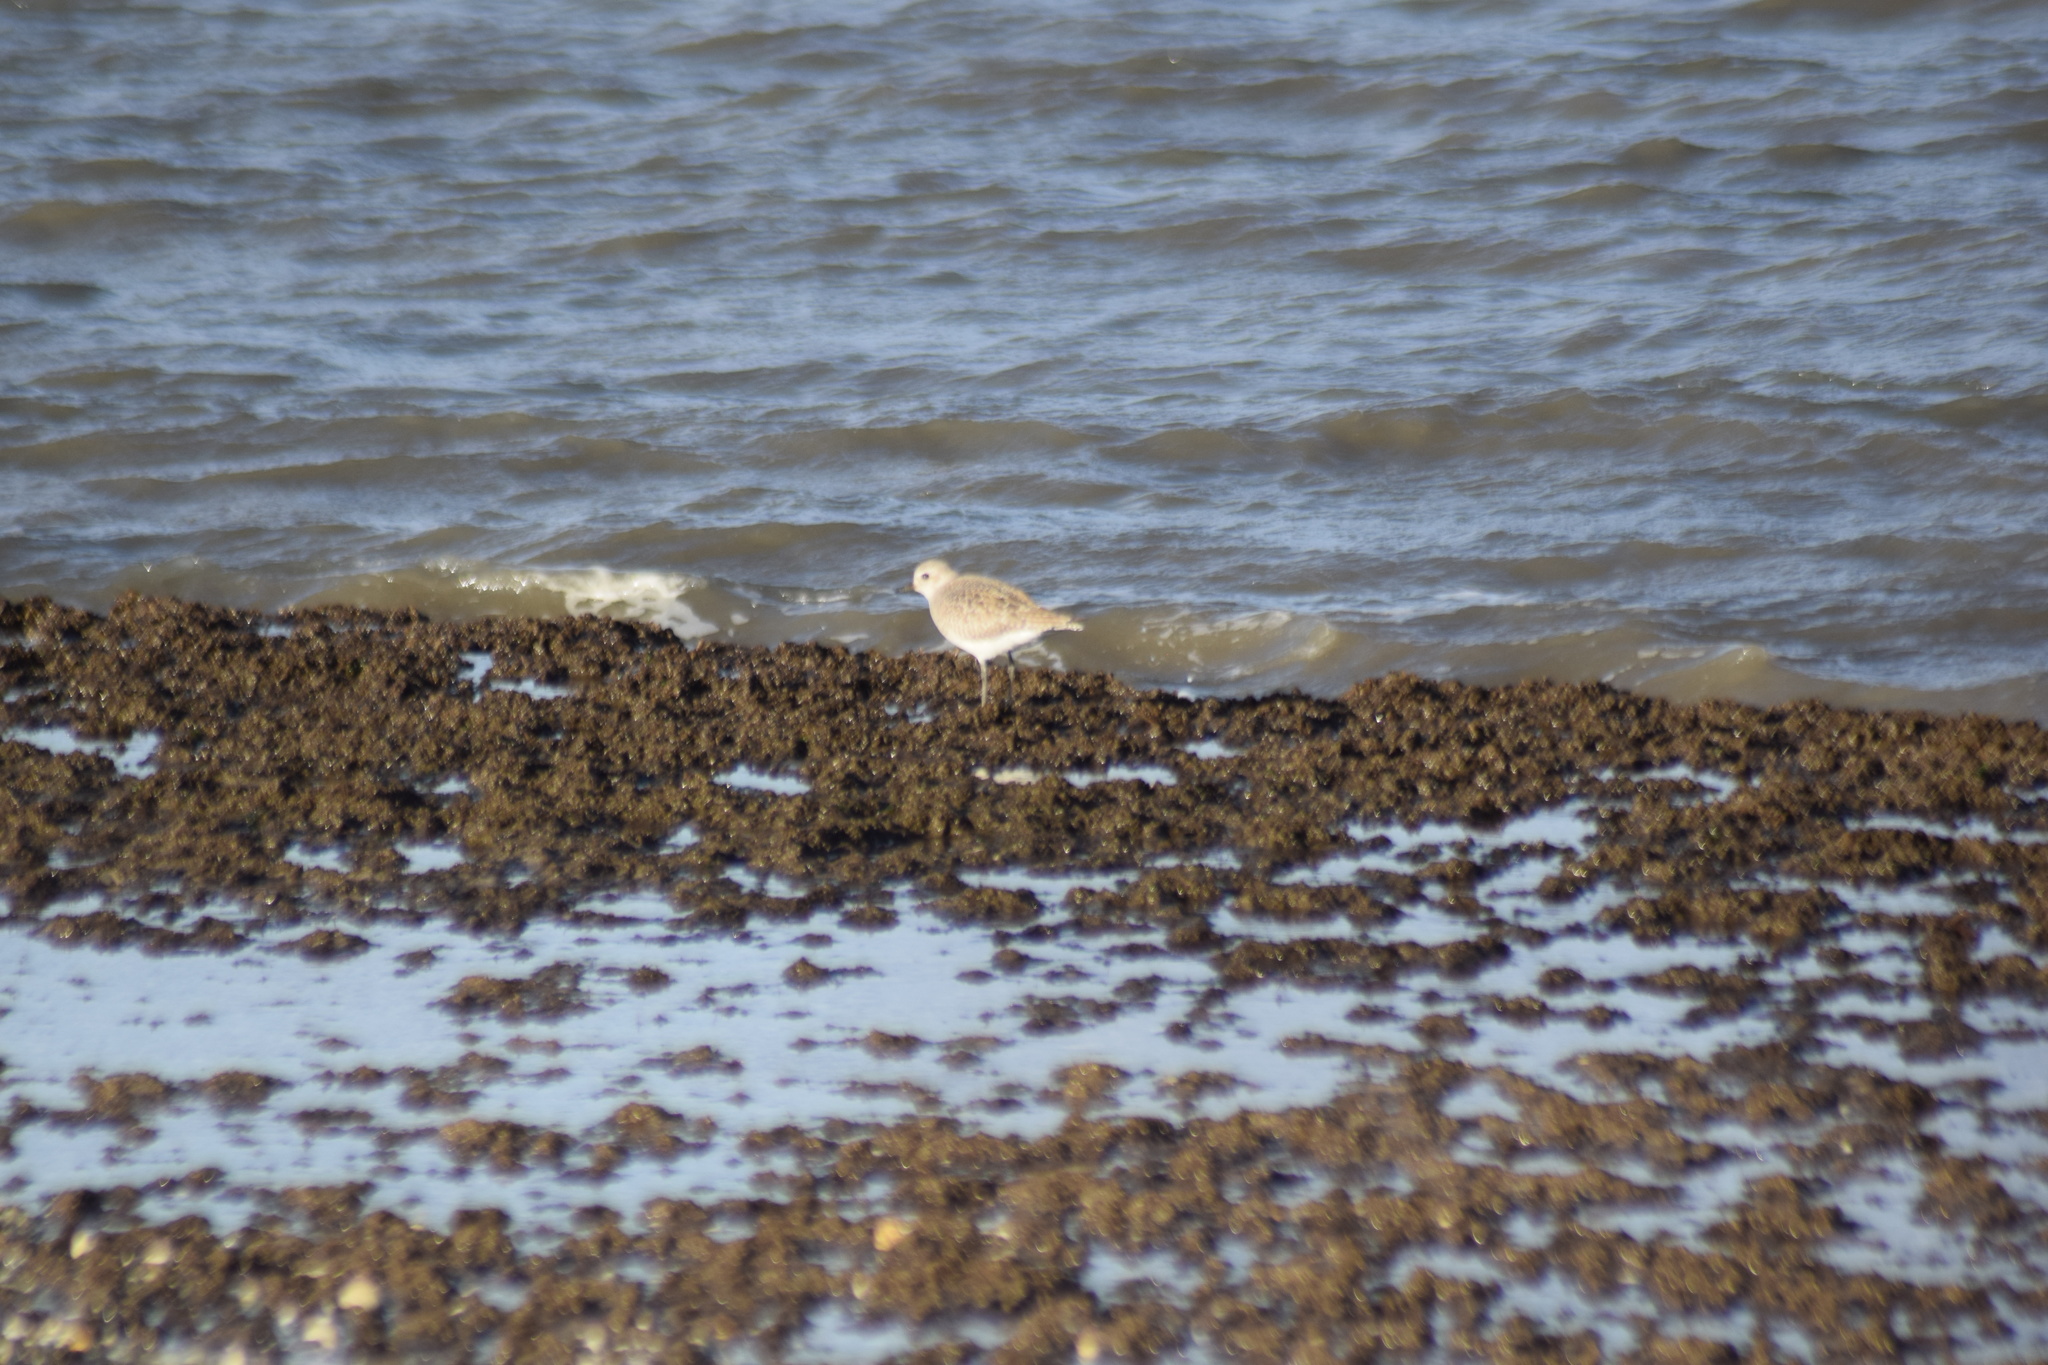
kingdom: Animalia
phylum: Chordata
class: Aves
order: Charadriiformes
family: Charadriidae
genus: Pluvialis
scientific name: Pluvialis squatarola
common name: Grey plover
